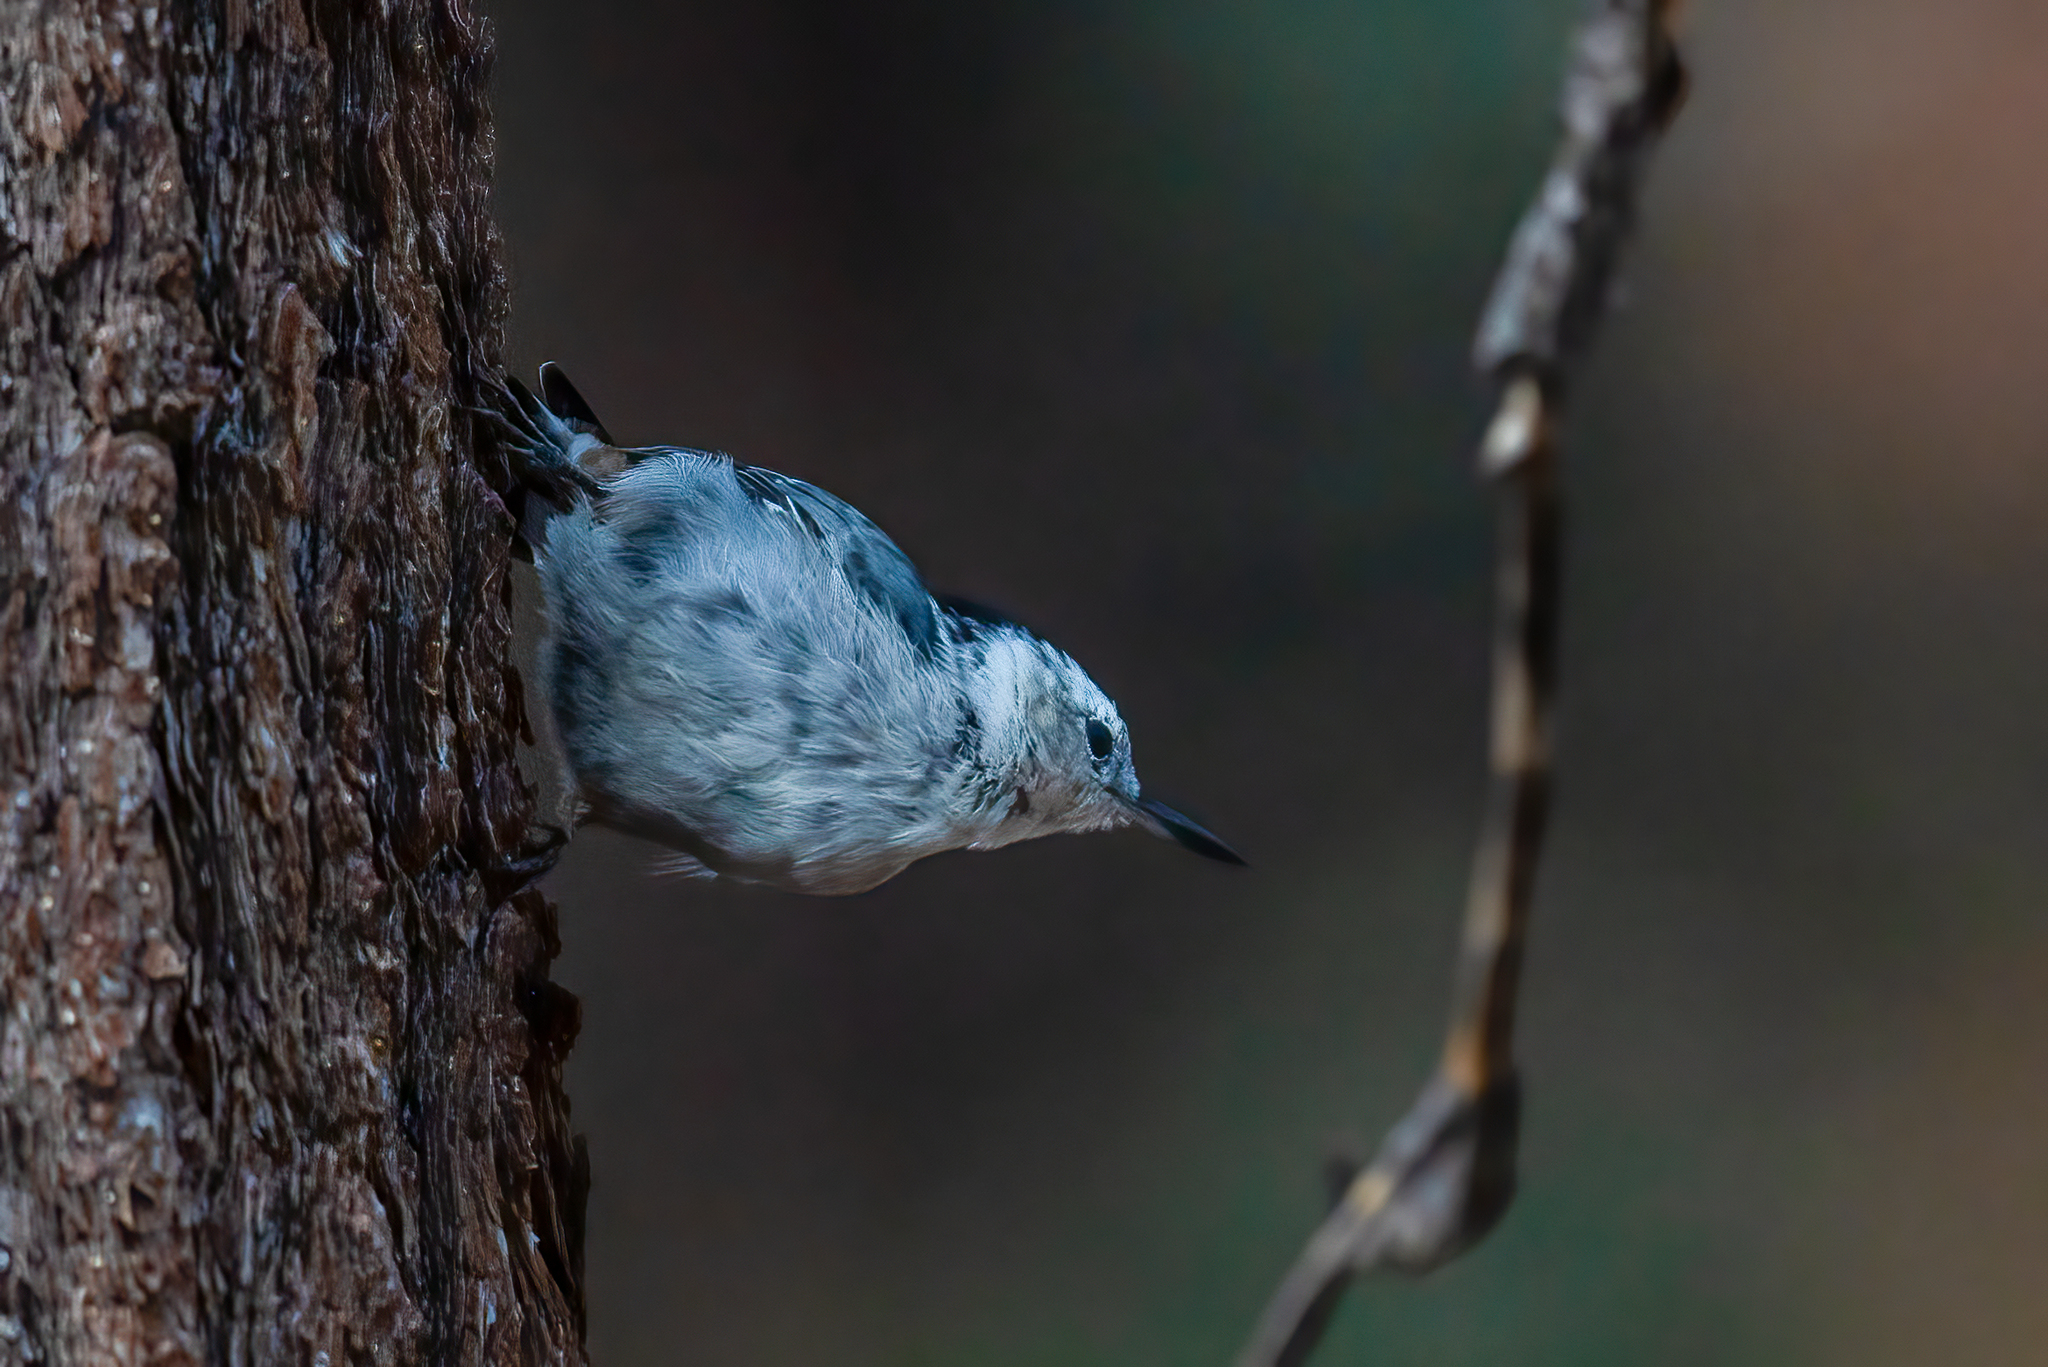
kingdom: Animalia
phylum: Chordata
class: Aves
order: Passeriformes
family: Sittidae
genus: Sitta
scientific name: Sitta carolinensis
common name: White-breasted nuthatch
